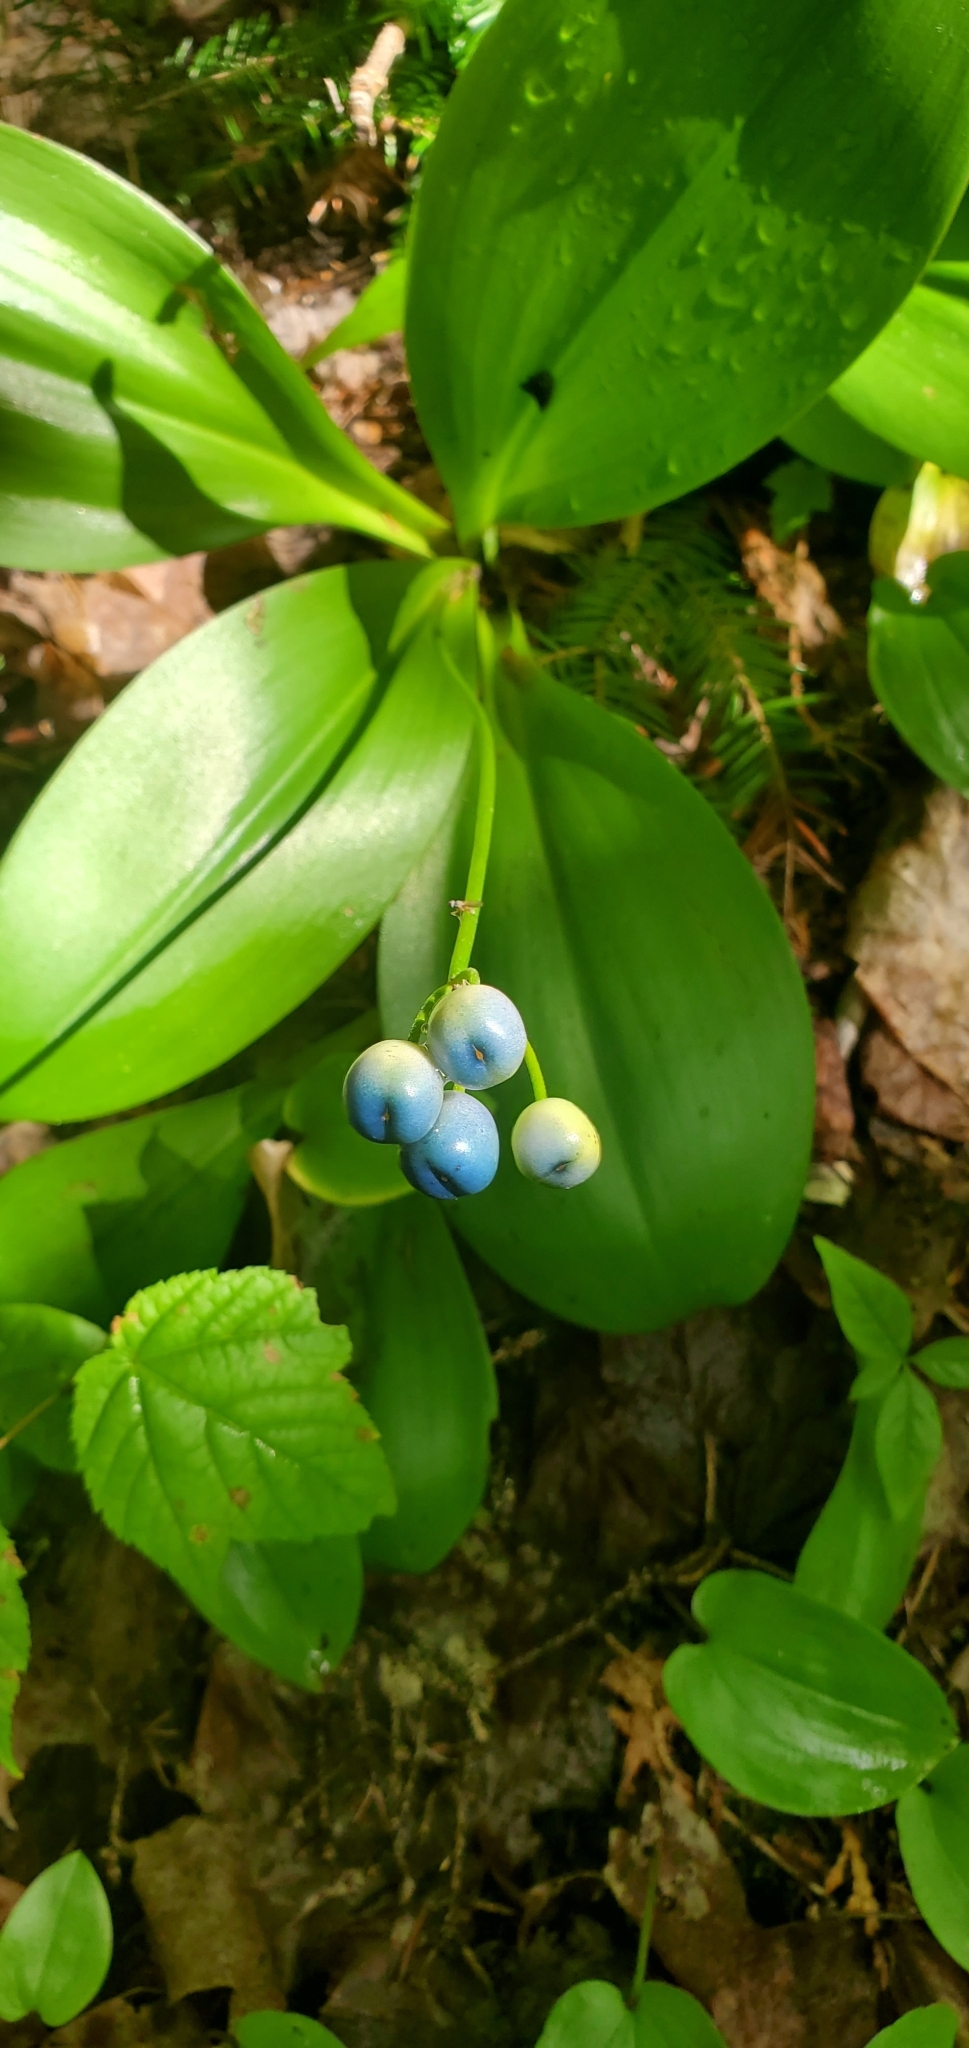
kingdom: Plantae
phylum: Tracheophyta
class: Liliopsida
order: Liliales
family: Liliaceae
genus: Clintonia
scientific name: Clintonia borealis
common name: Yellow clintonia
